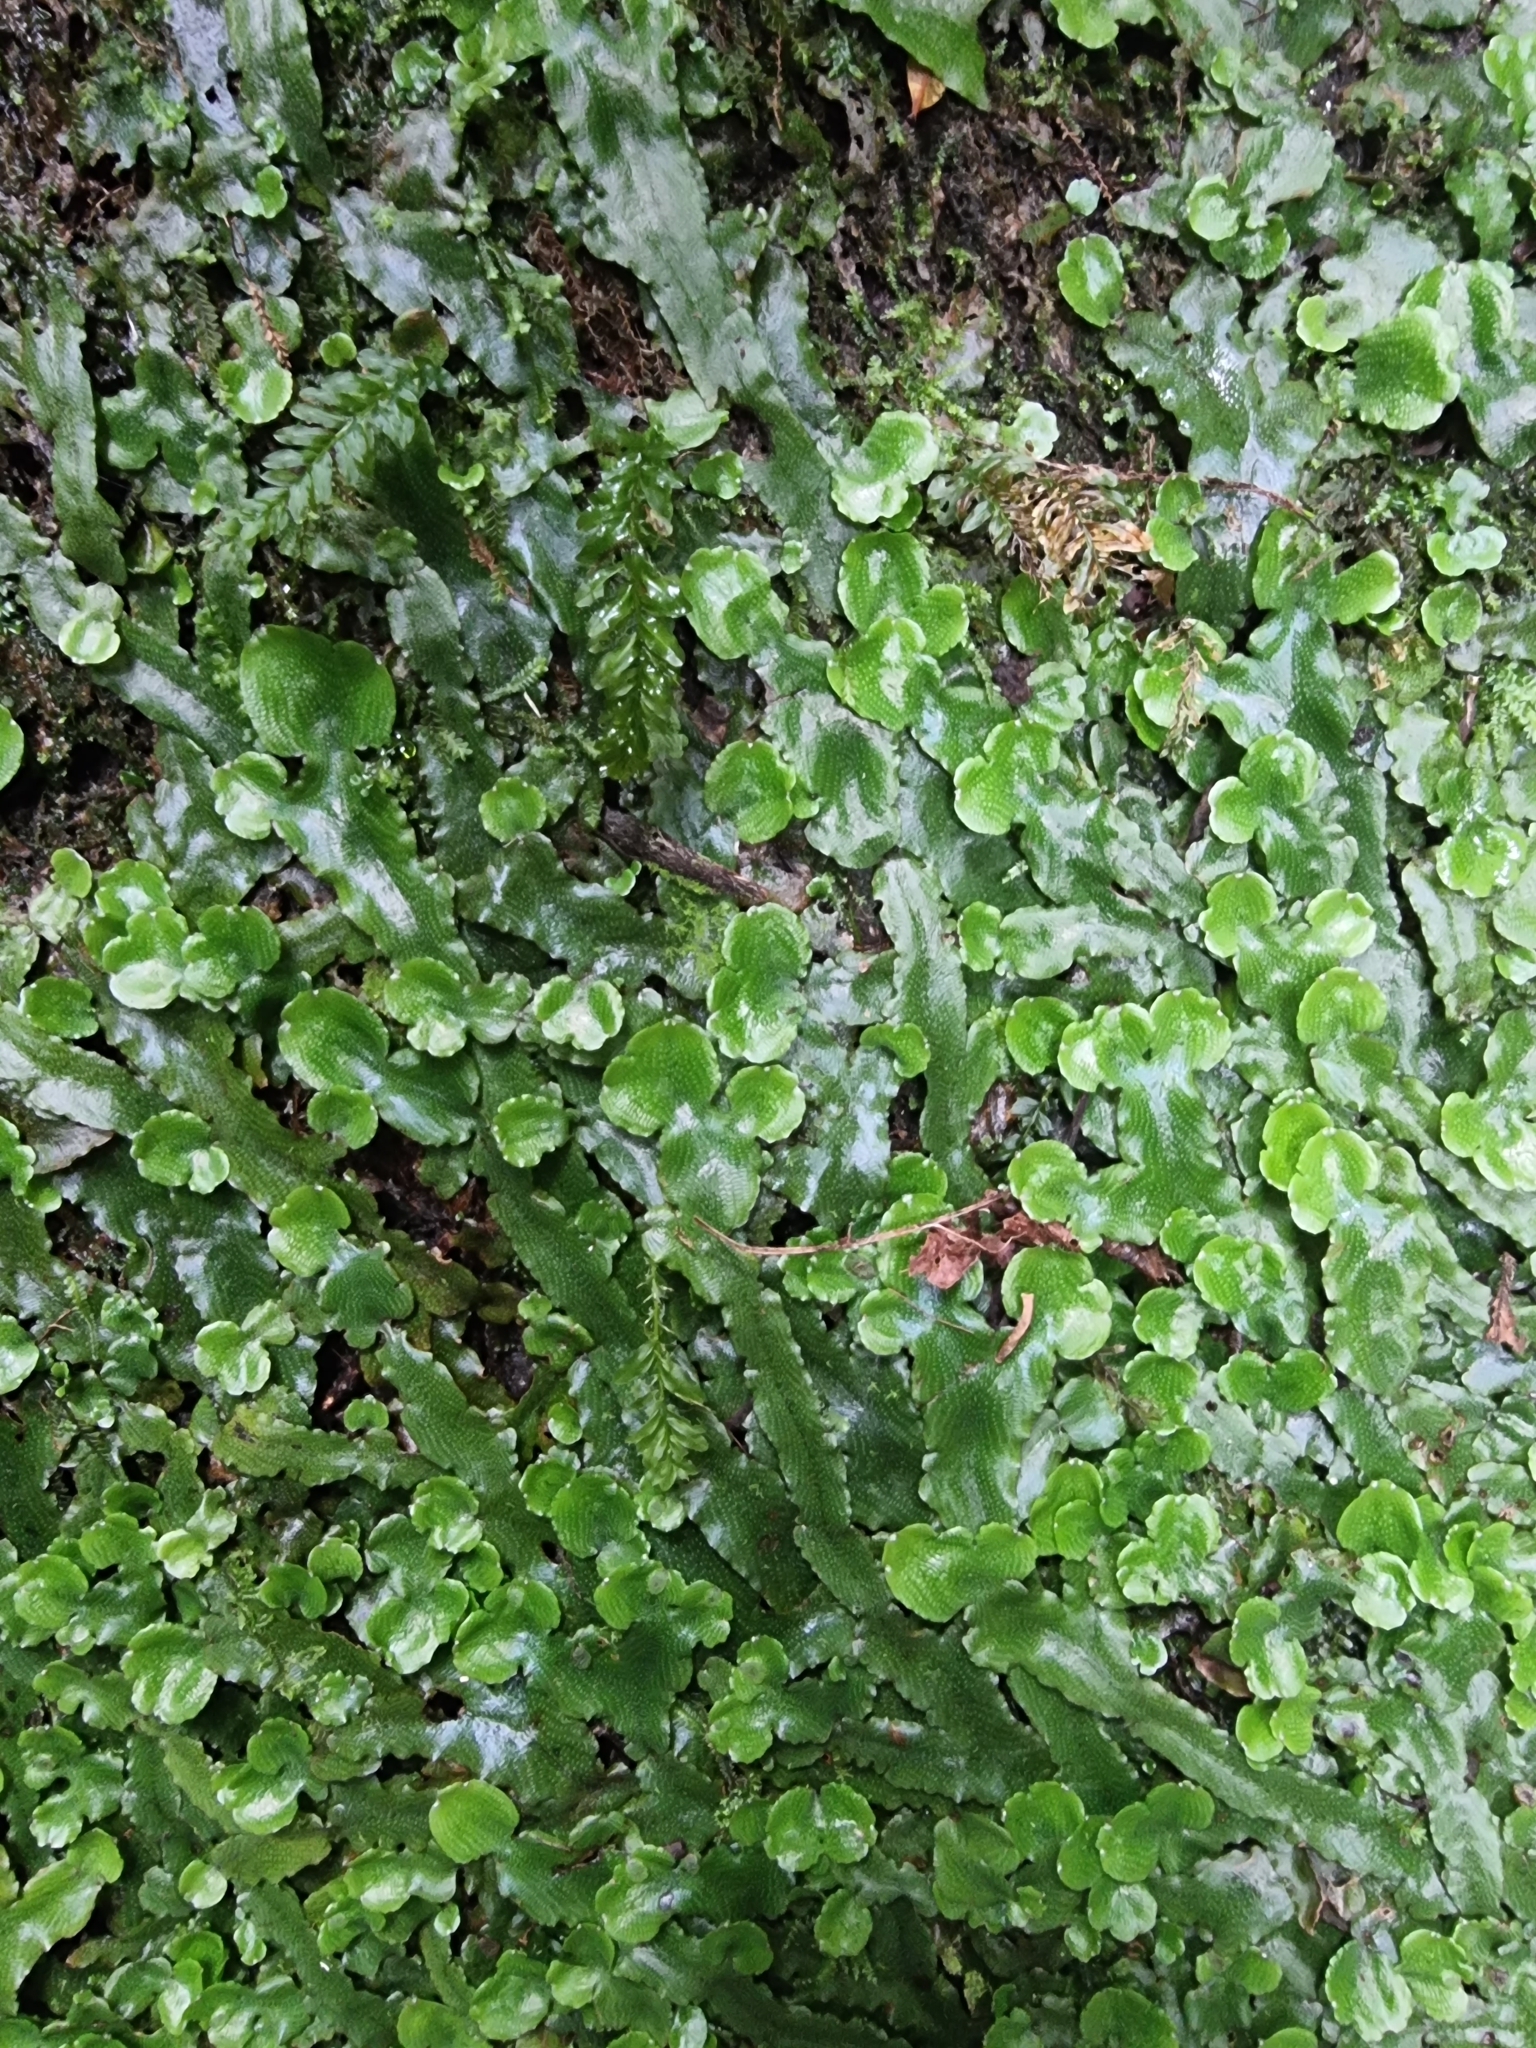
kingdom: Plantae
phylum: Marchantiophyta
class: Marchantiopsida
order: Marchantiales
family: Conocephalaceae
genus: Conocephalum
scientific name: Conocephalum conicum
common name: Great scented liverwort
